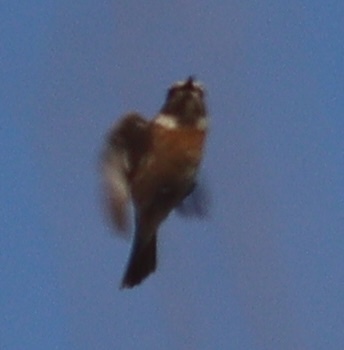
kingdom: Animalia
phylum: Chordata
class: Aves
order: Passeriformes
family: Muscicapidae
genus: Saxicola
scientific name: Saxicola rubicola
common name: European stonechat
